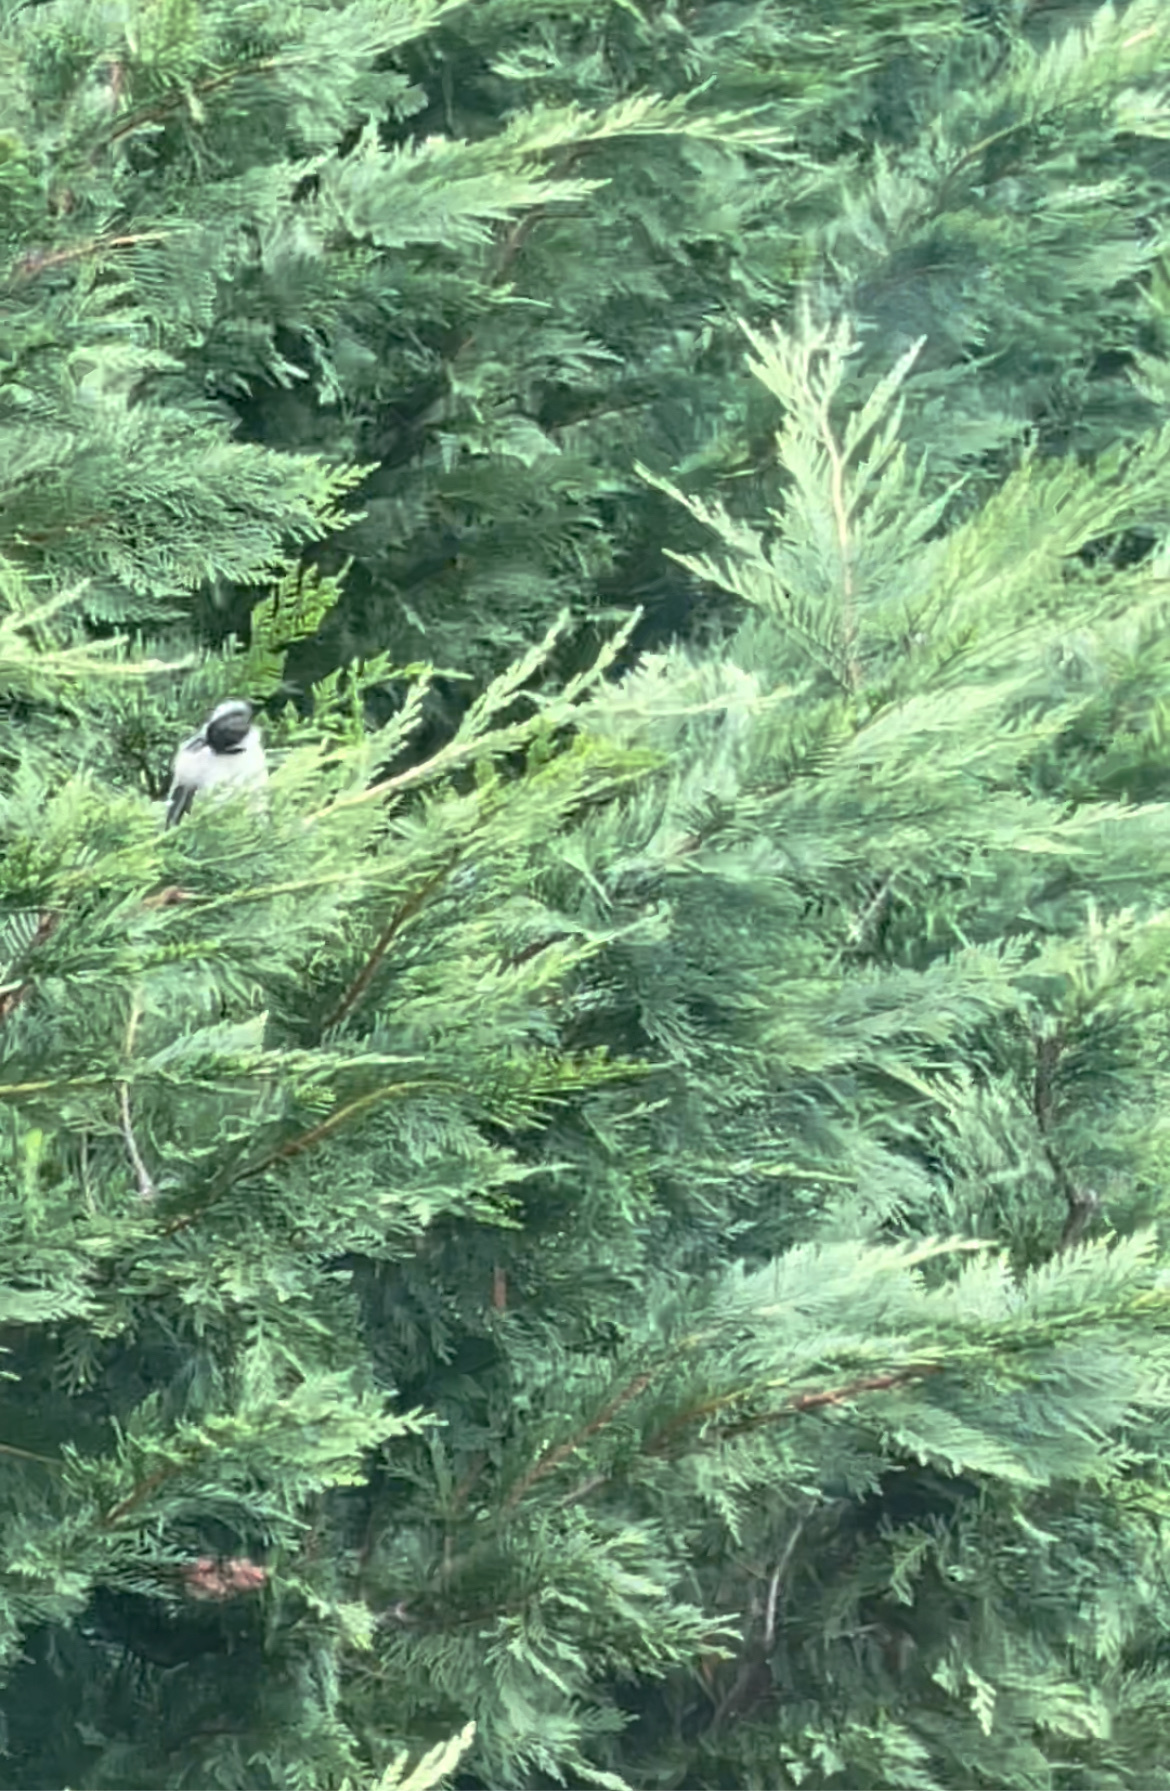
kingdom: Animalia
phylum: Chordata
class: Aves
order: Passeriformes
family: Paridae
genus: Poecile
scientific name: Poecile atricapillus
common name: Black-capped chickadee
